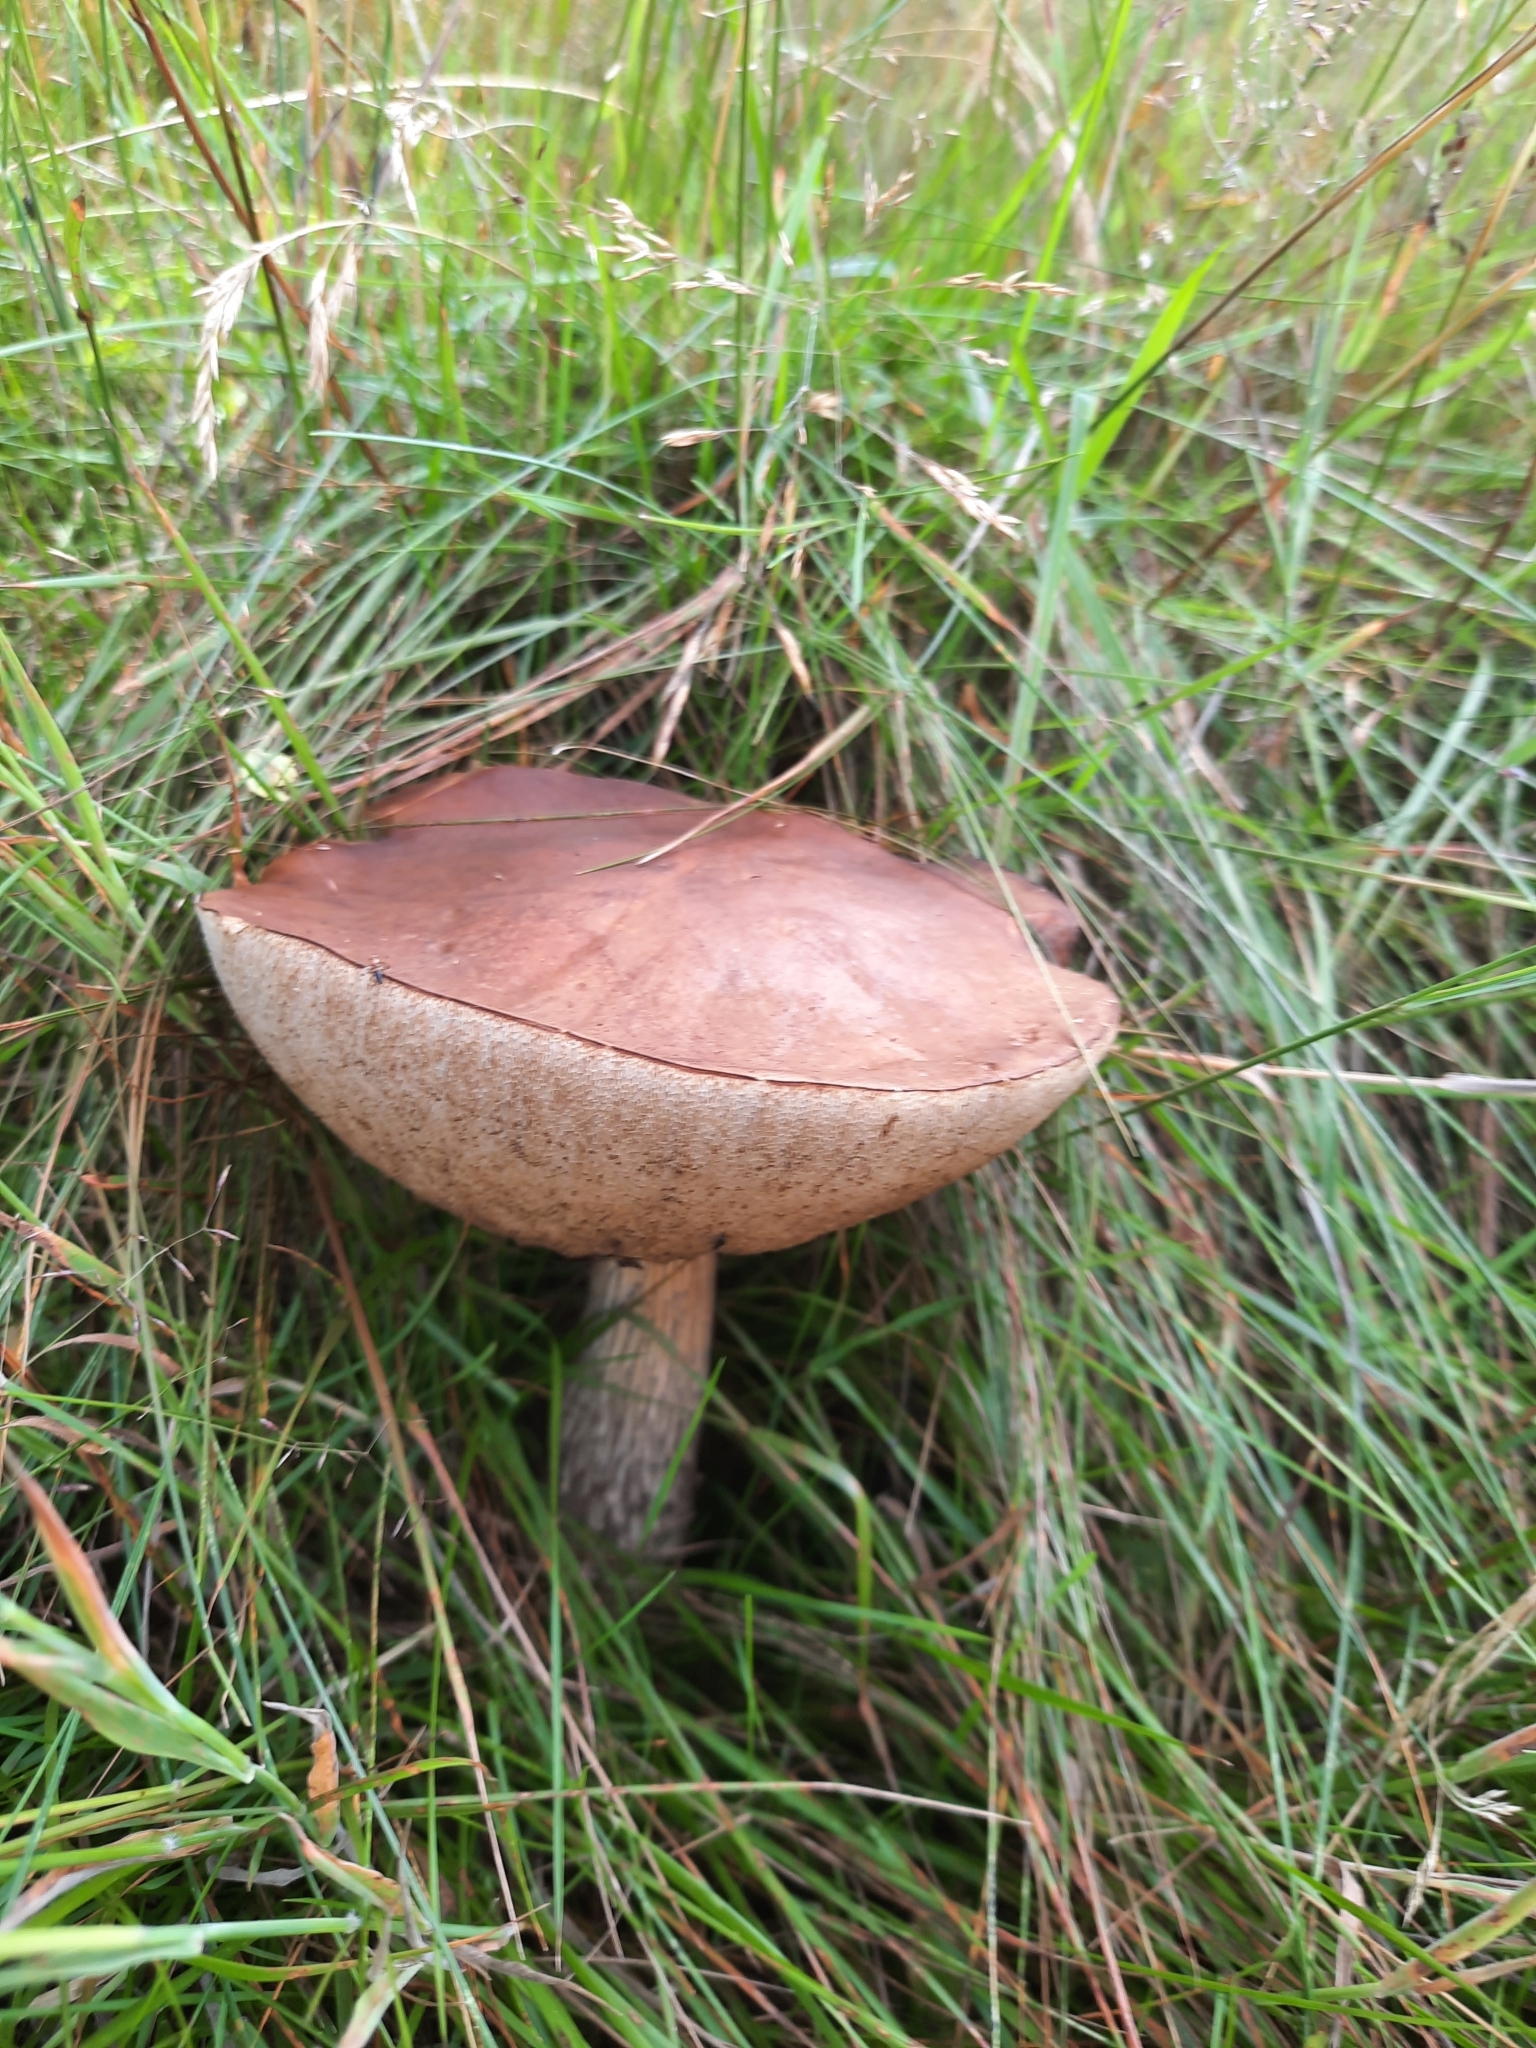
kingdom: Fungi
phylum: Basidiomycota
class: Agaricomycetes
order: Boletales
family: Boletaceae
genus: Leccinum
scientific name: Leccinum scabrum
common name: Blushing bolete
